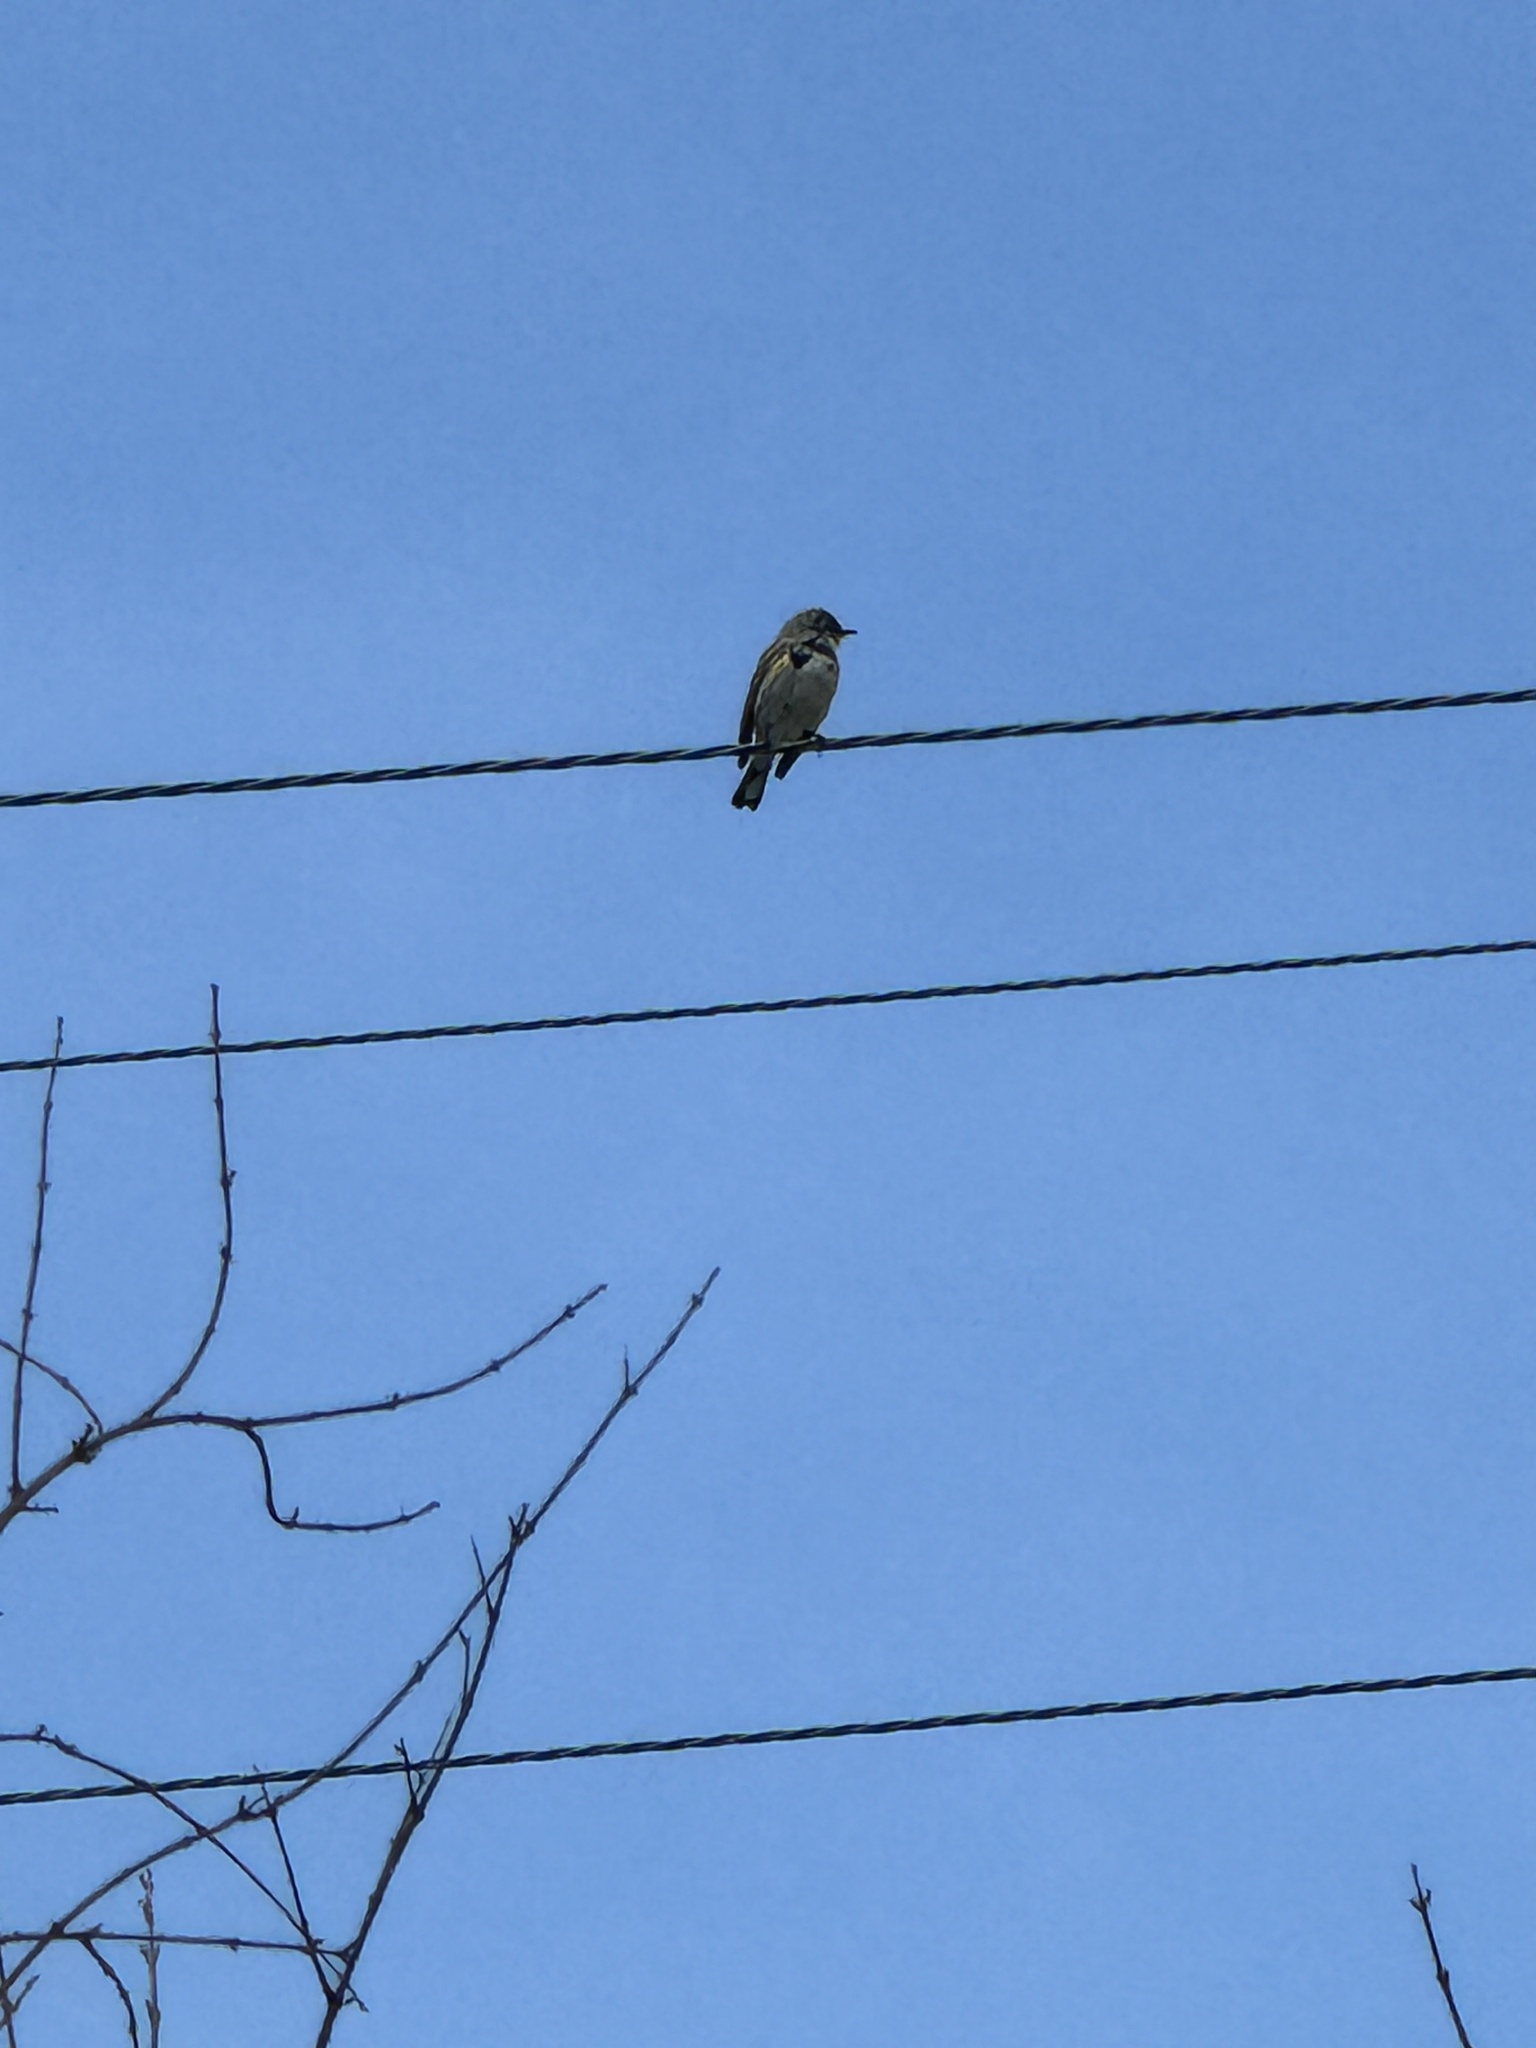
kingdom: Animalia
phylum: Chordata
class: Aves
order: Passeriformes
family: Parulidae
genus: Setophaga
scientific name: Setophaga auduboni
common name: Audubon's warbler
